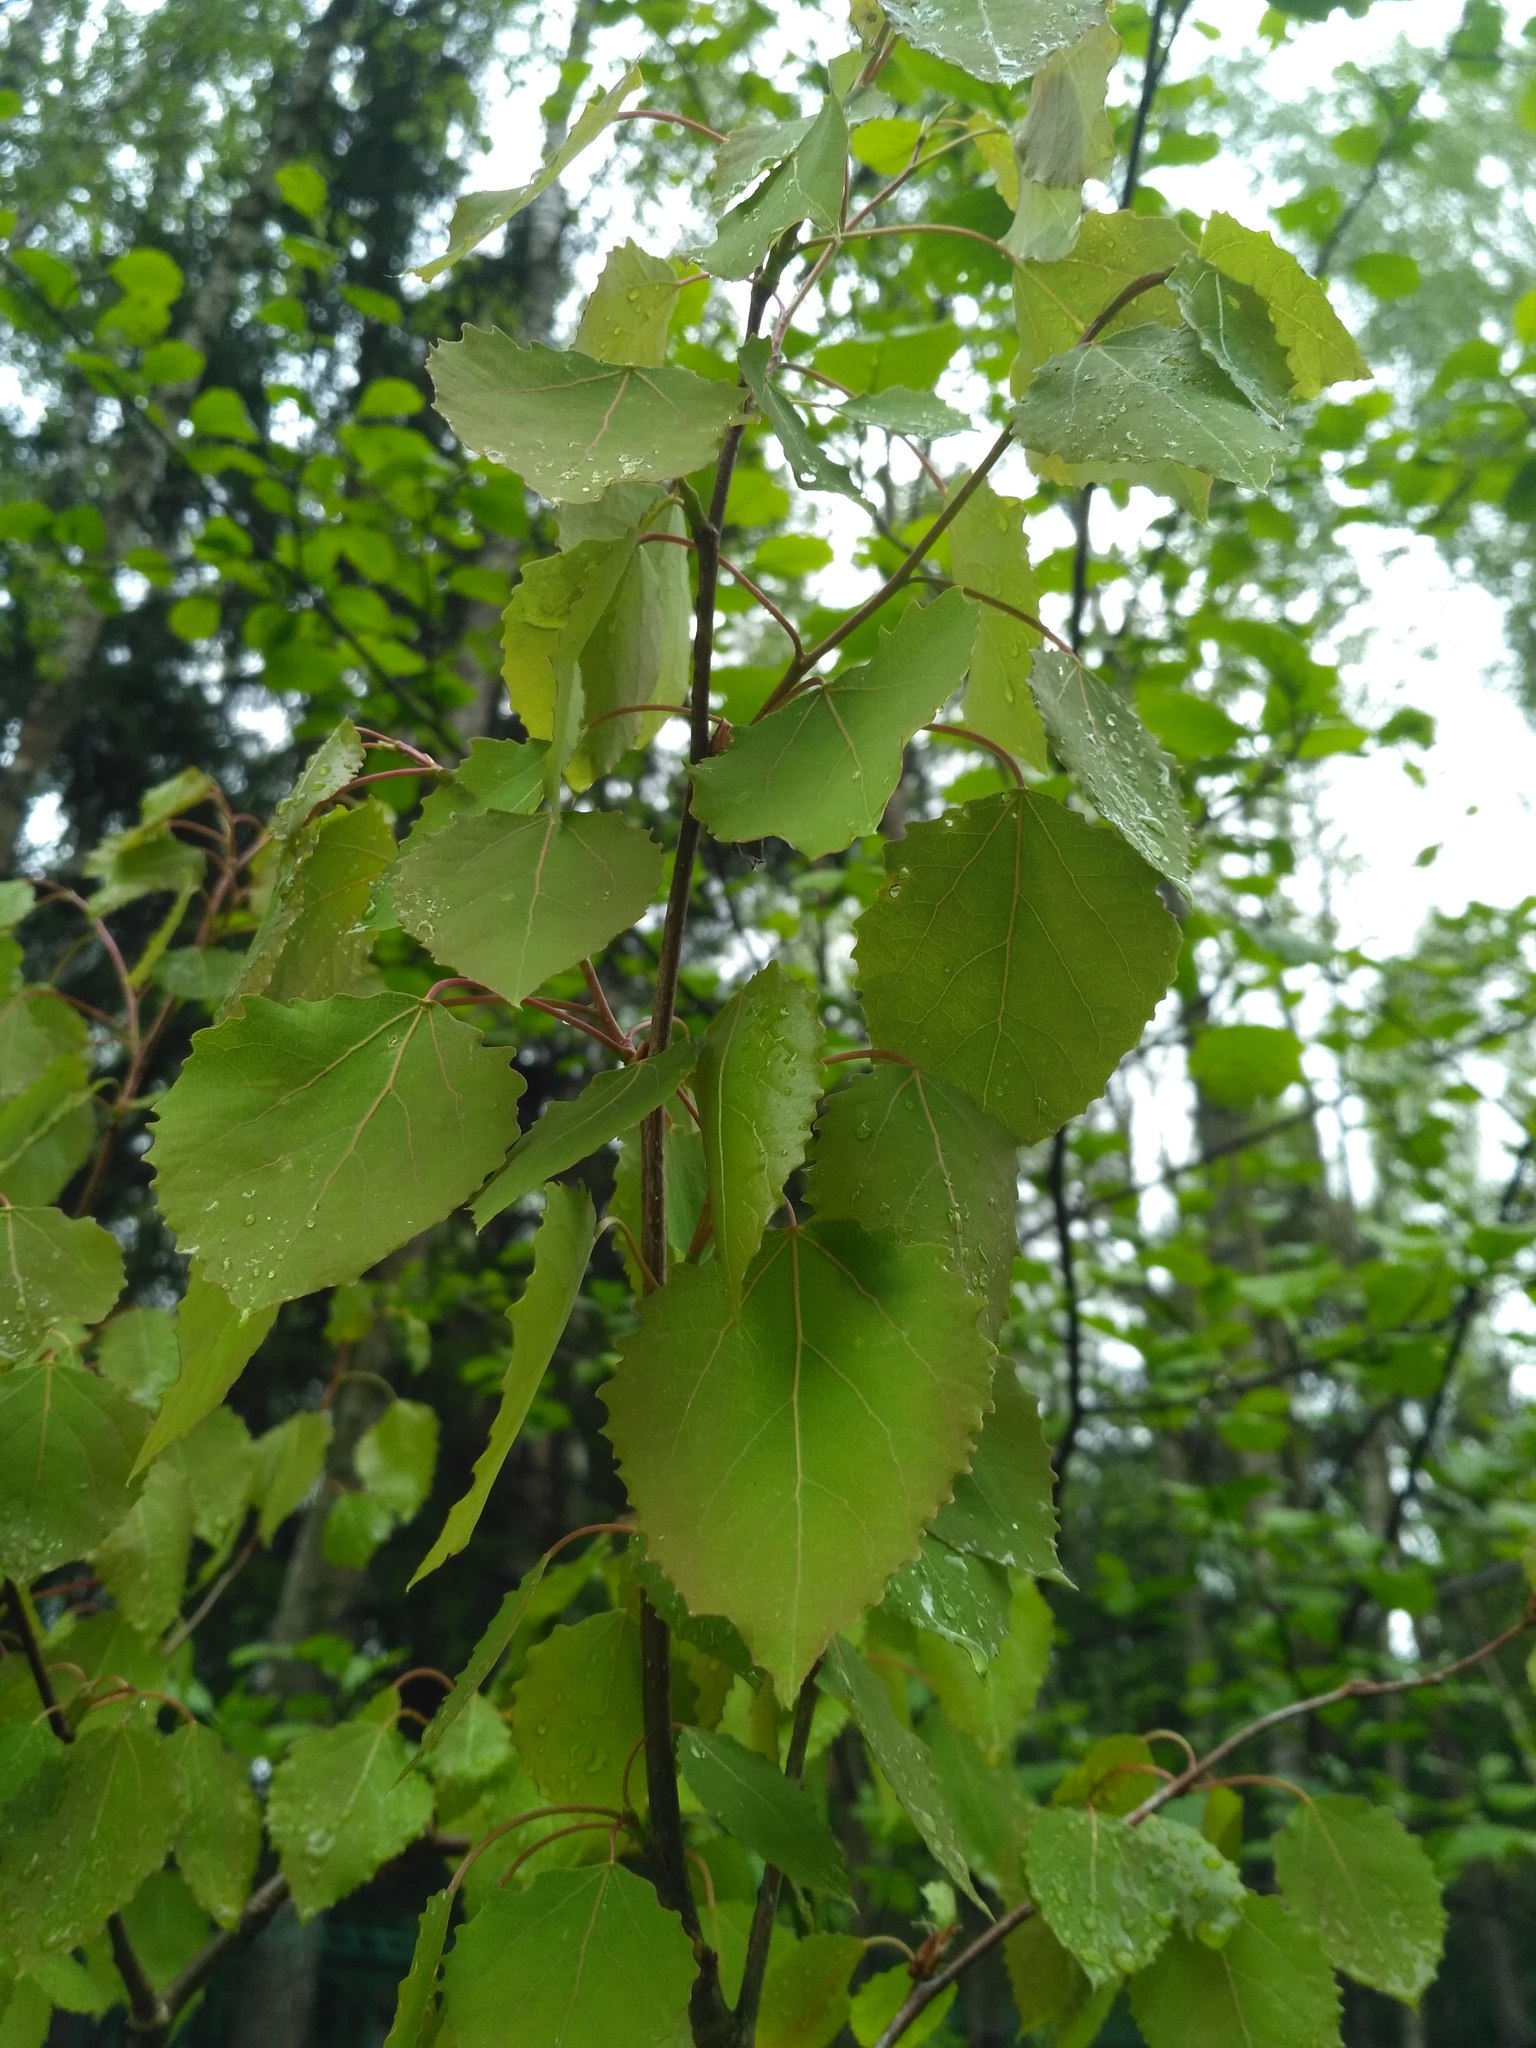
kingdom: Plantae
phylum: Tracheophyta
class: Magnoliopsida
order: Malpighiales
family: Salicaceae
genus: Populus
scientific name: Populus tremula
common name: European aspen
